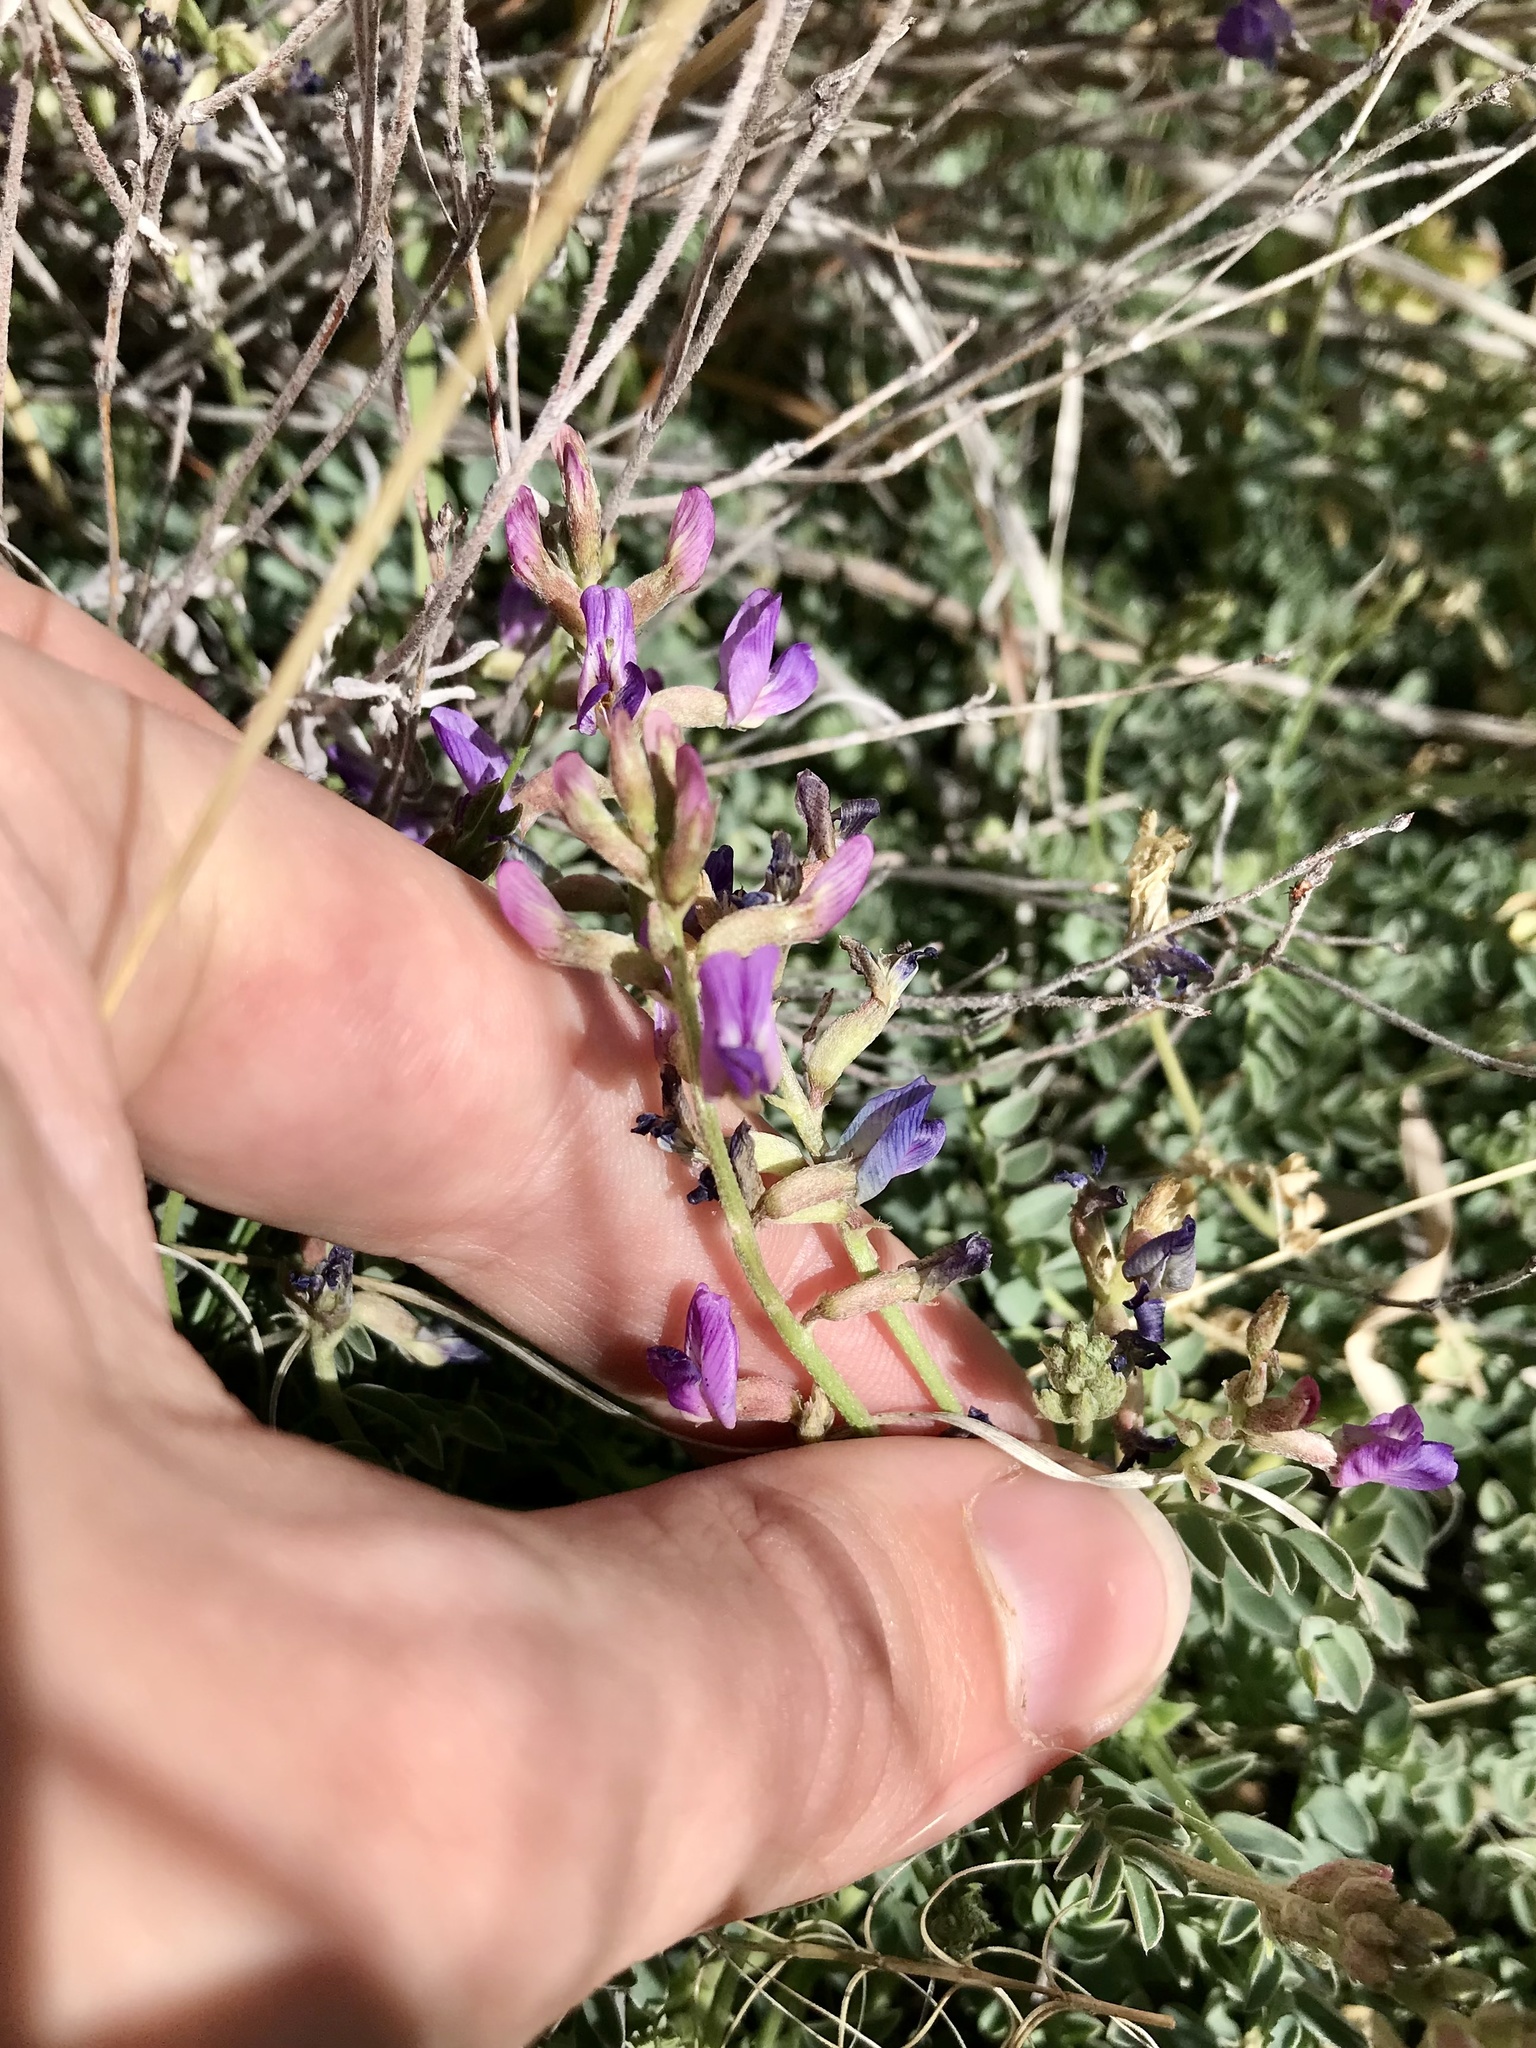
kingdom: Plantae
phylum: Tracheophyta
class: Magnoliopsida
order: Fabales
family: Fabaceae
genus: Astragalus
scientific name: Astragalus nothoxys
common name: Beaked milk-vetch
